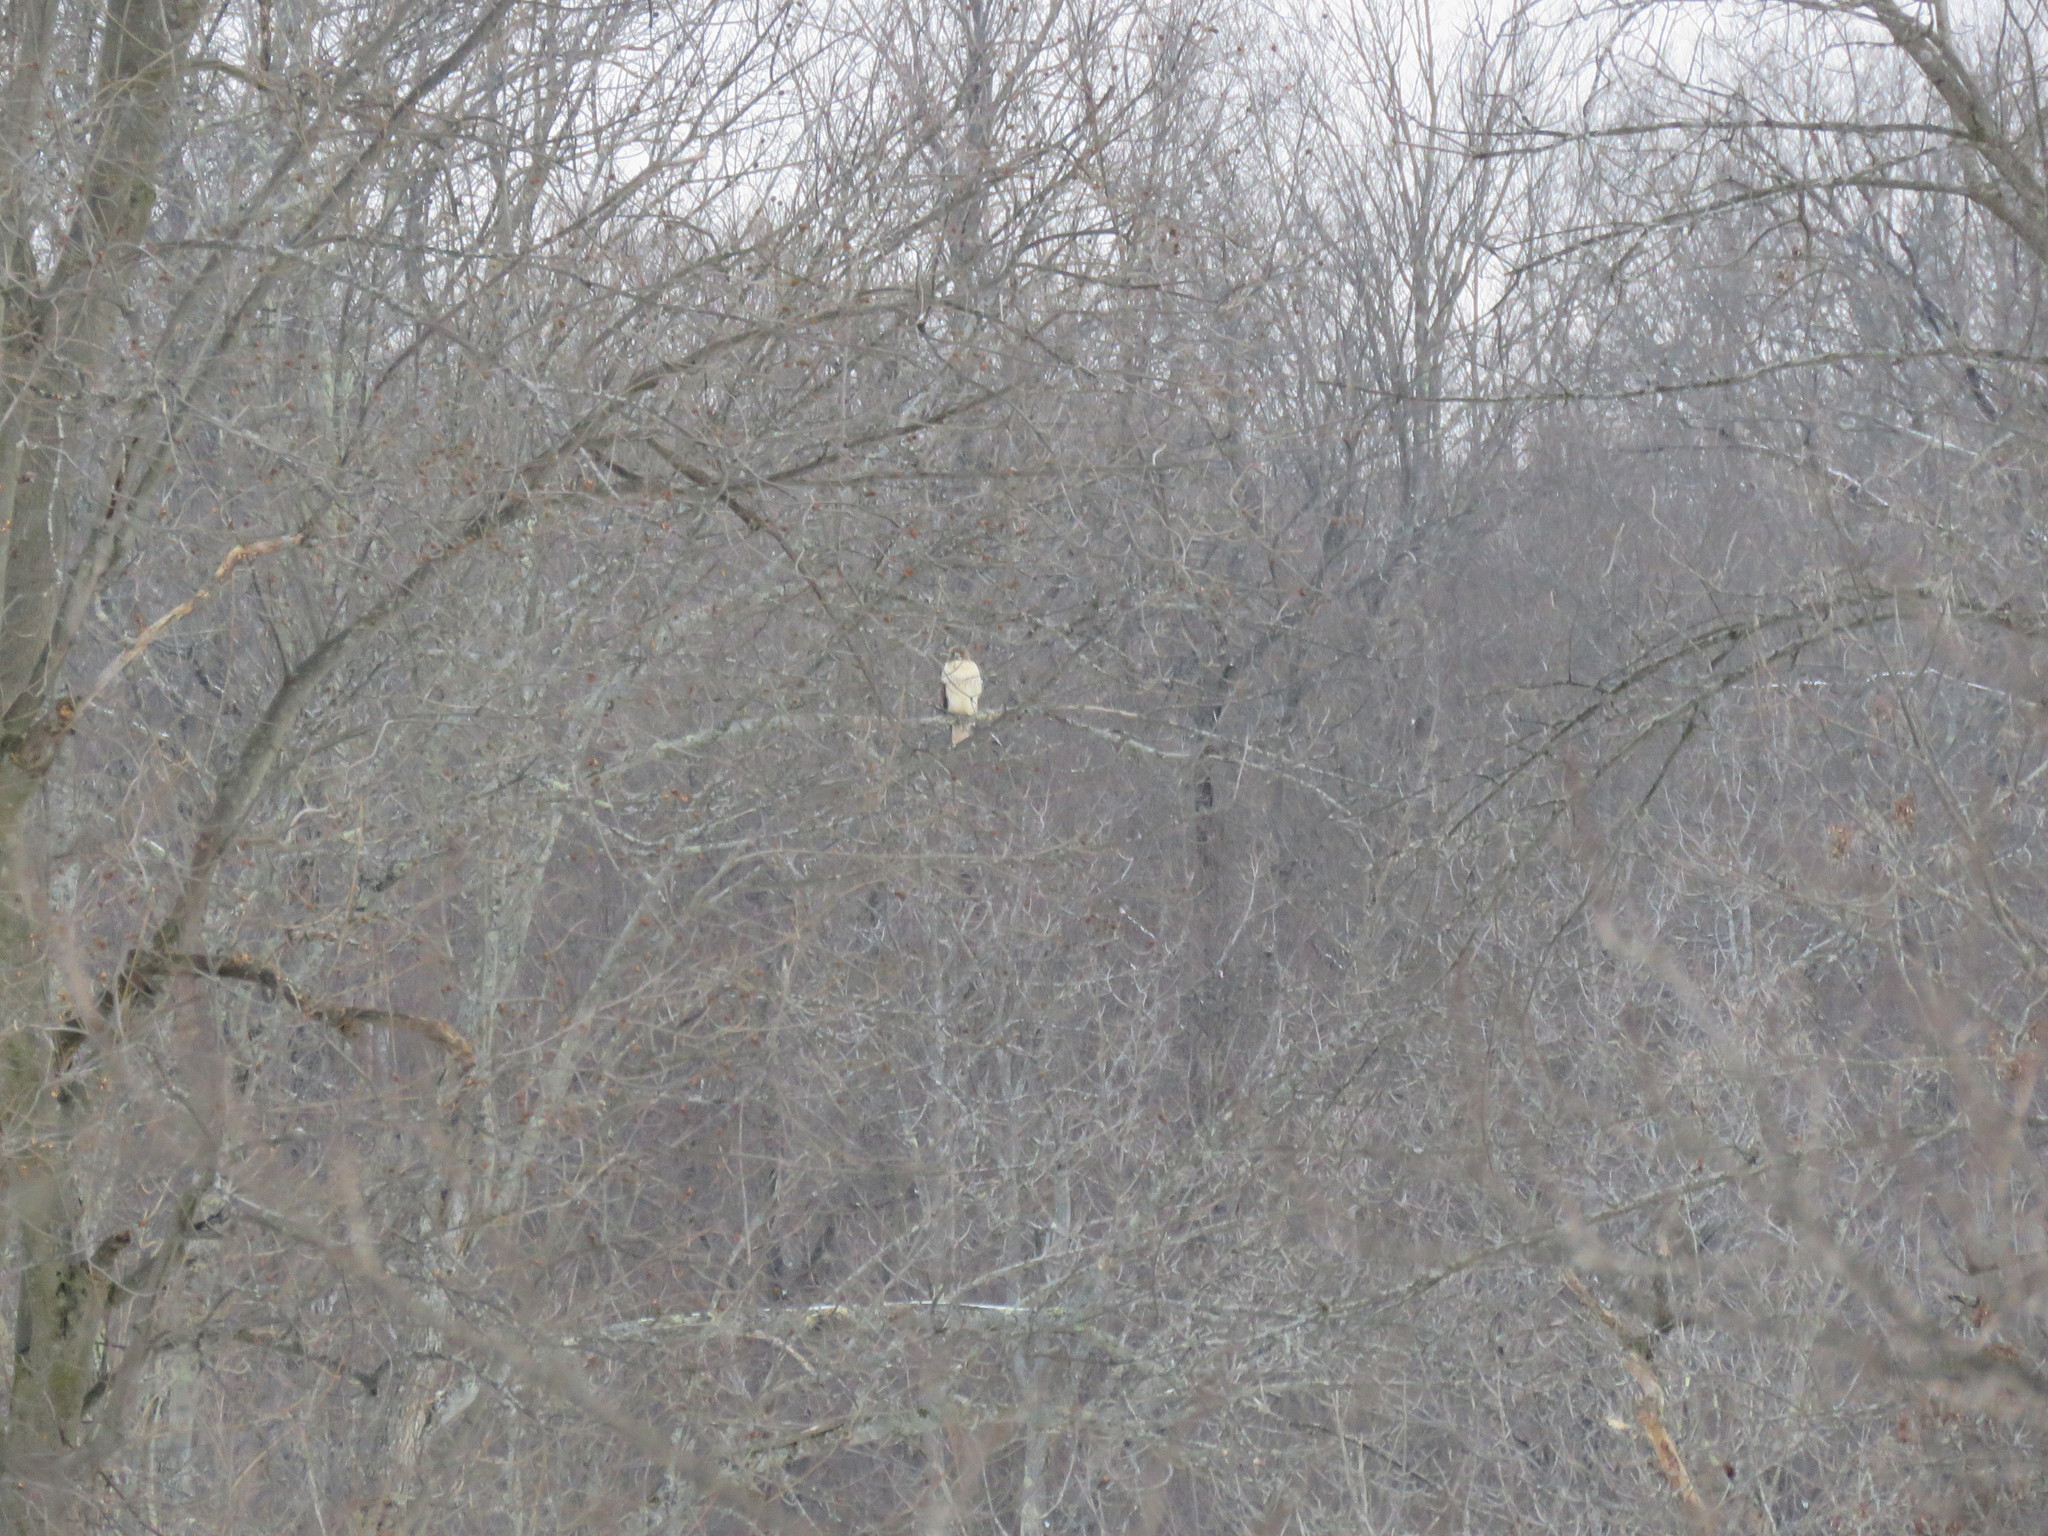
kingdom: Animalia
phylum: Chordata
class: Aves
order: Accipitriformes
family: Accipitridae
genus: Buteo
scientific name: Buteo jamaicensis
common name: Red-tailed hawk
